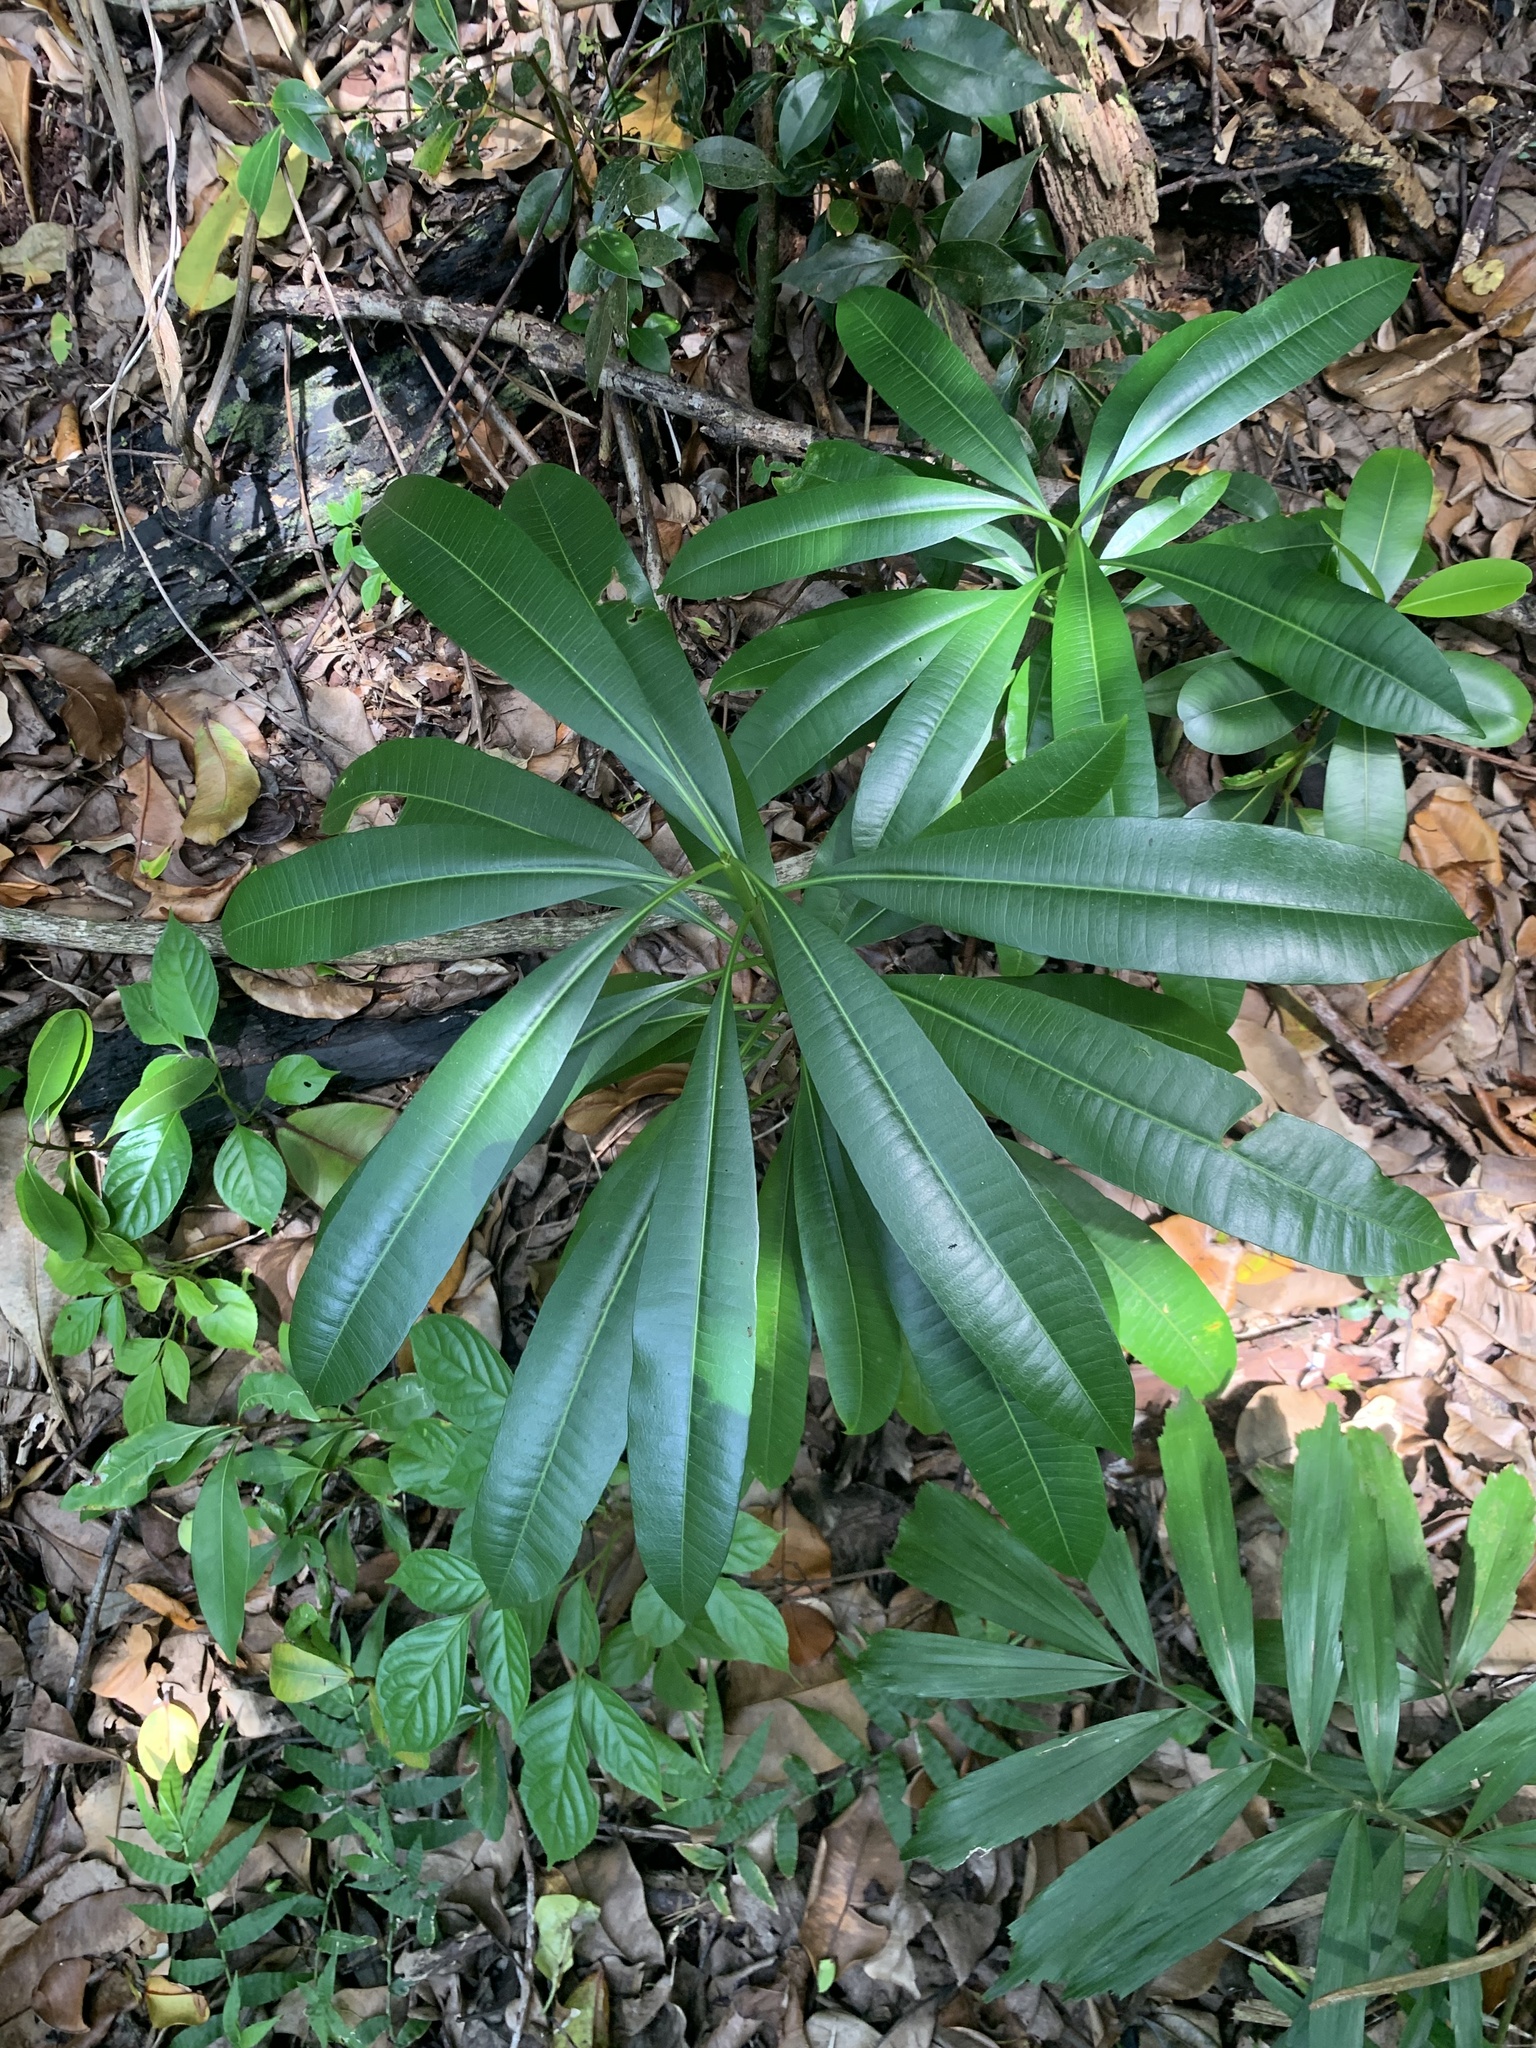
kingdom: Plantae
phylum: Tracheophyta
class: Magnoliopsida
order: Gentianales
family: Apocynaceae
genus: Ochrosia
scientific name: Ochrosia nakaiana
